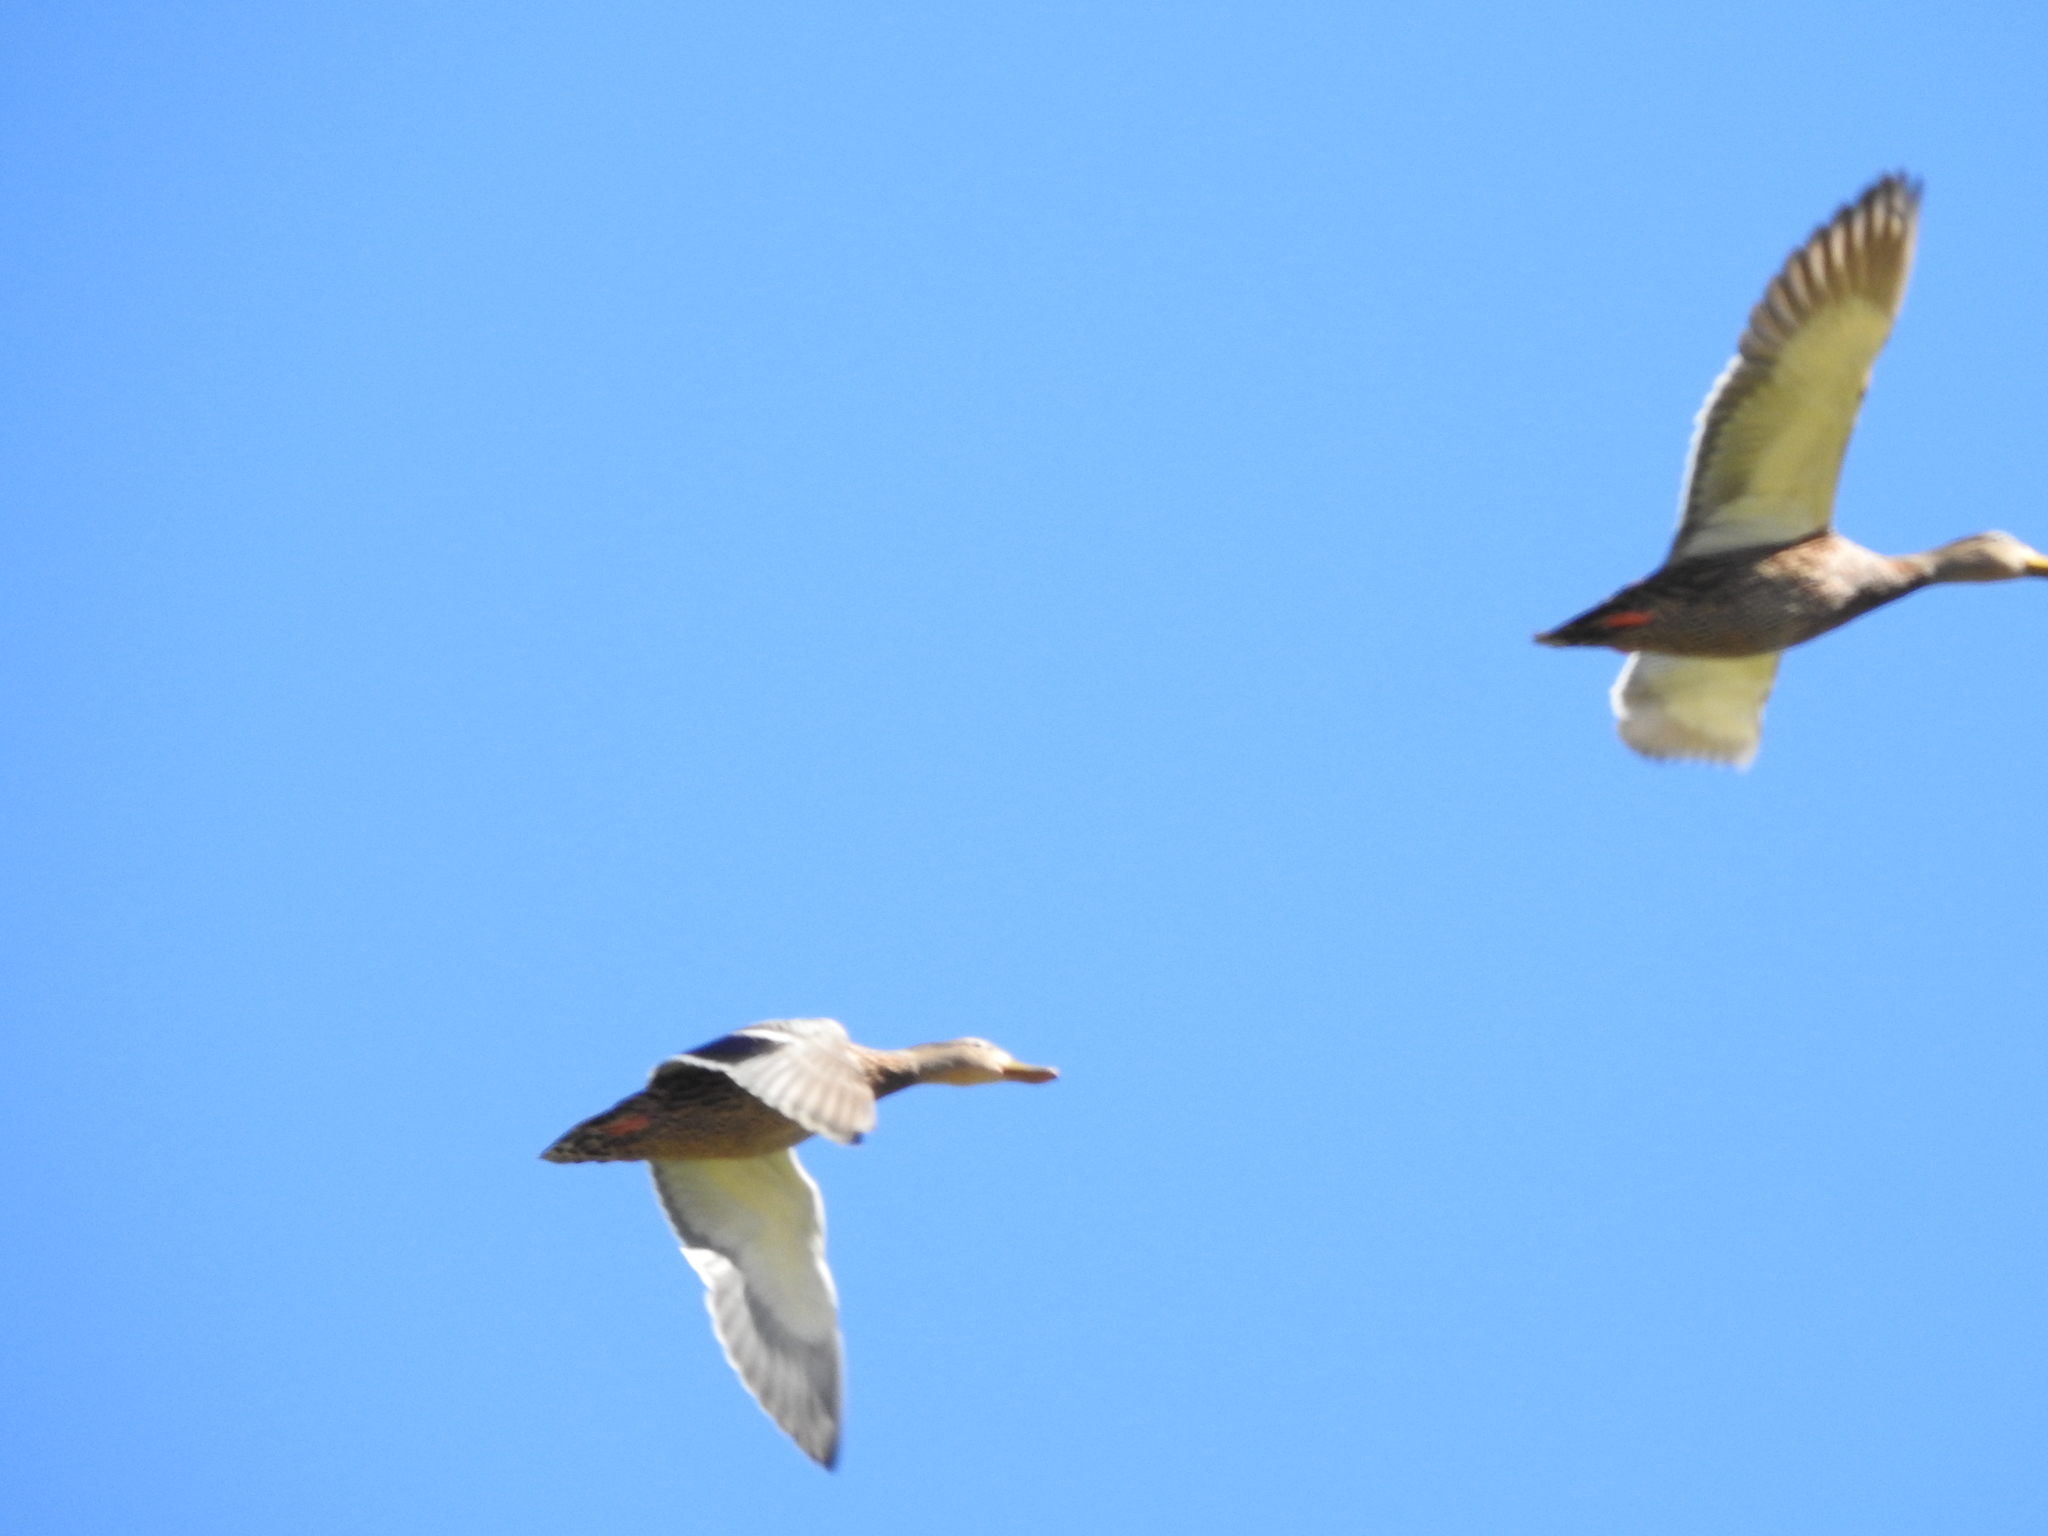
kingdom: Animalia
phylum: Chordata
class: Aves
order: Anseriformes
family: Anatidae
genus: Anas
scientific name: Anas platyrhynchos
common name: Mallard
